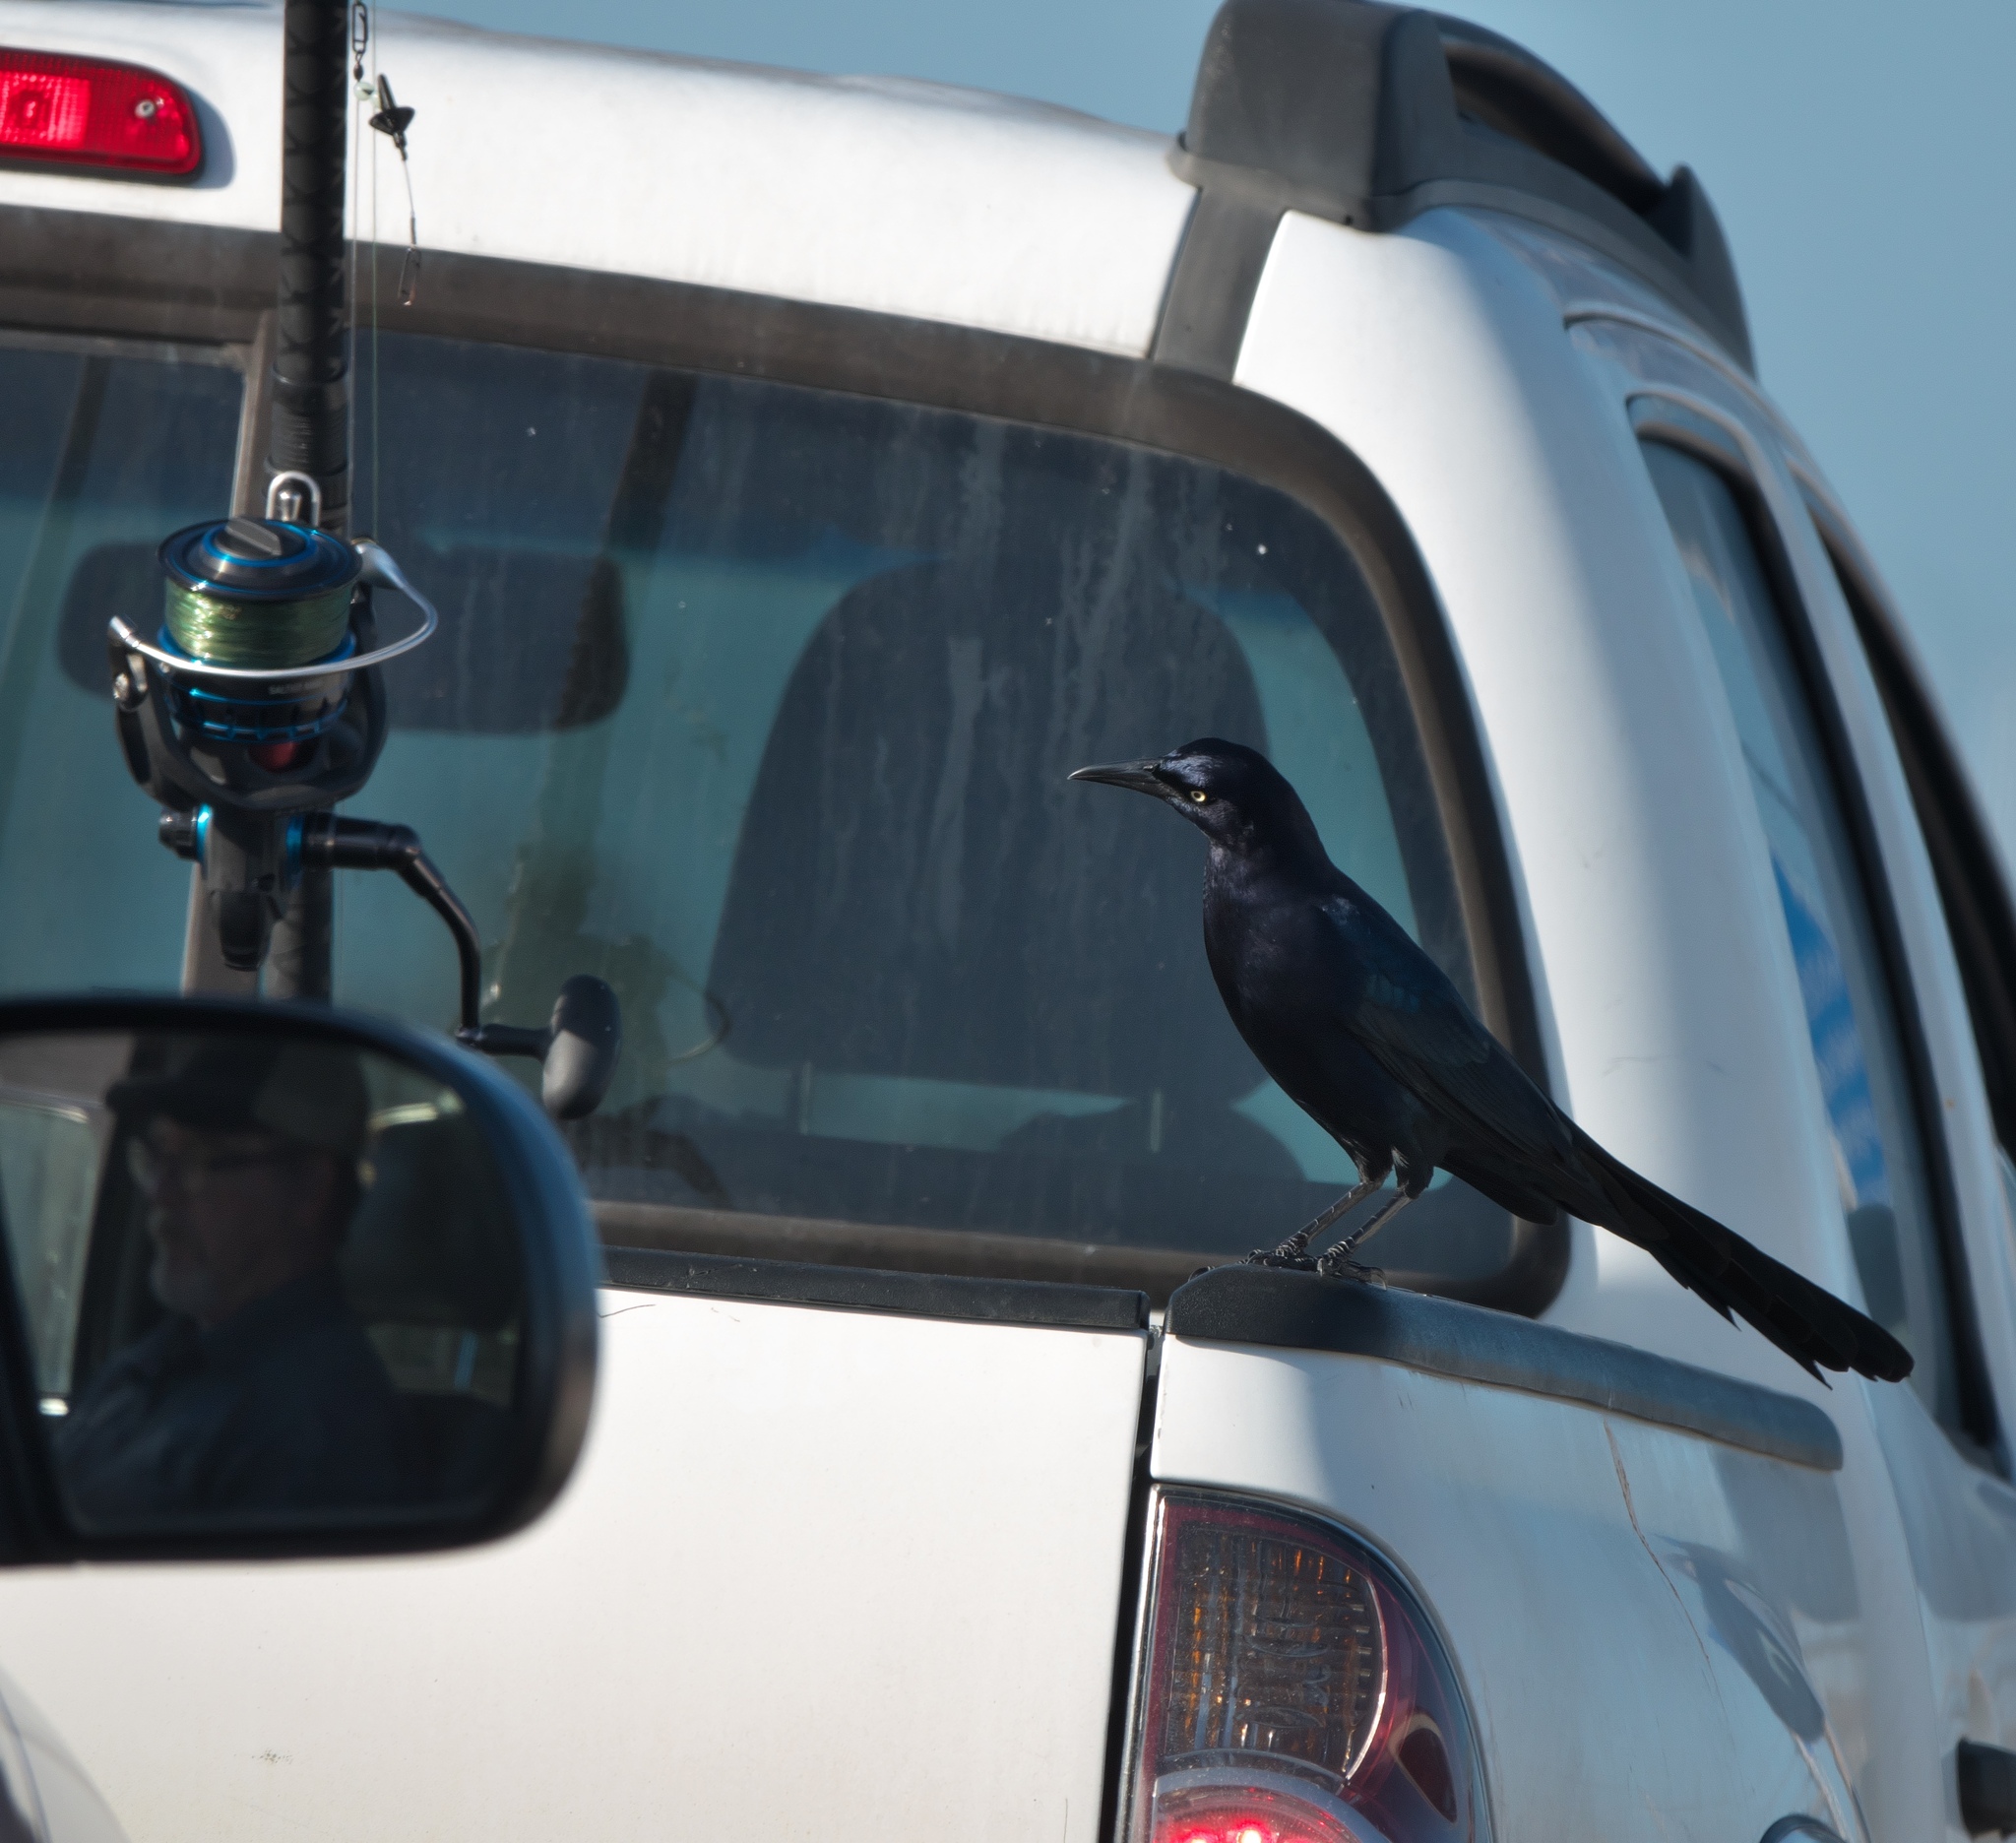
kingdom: Animalia
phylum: Chordata
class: Aves
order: Passeriformes
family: Icteridae
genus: Quiscalus
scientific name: Quiscalus mexicanus
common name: Great-tailed grackle
